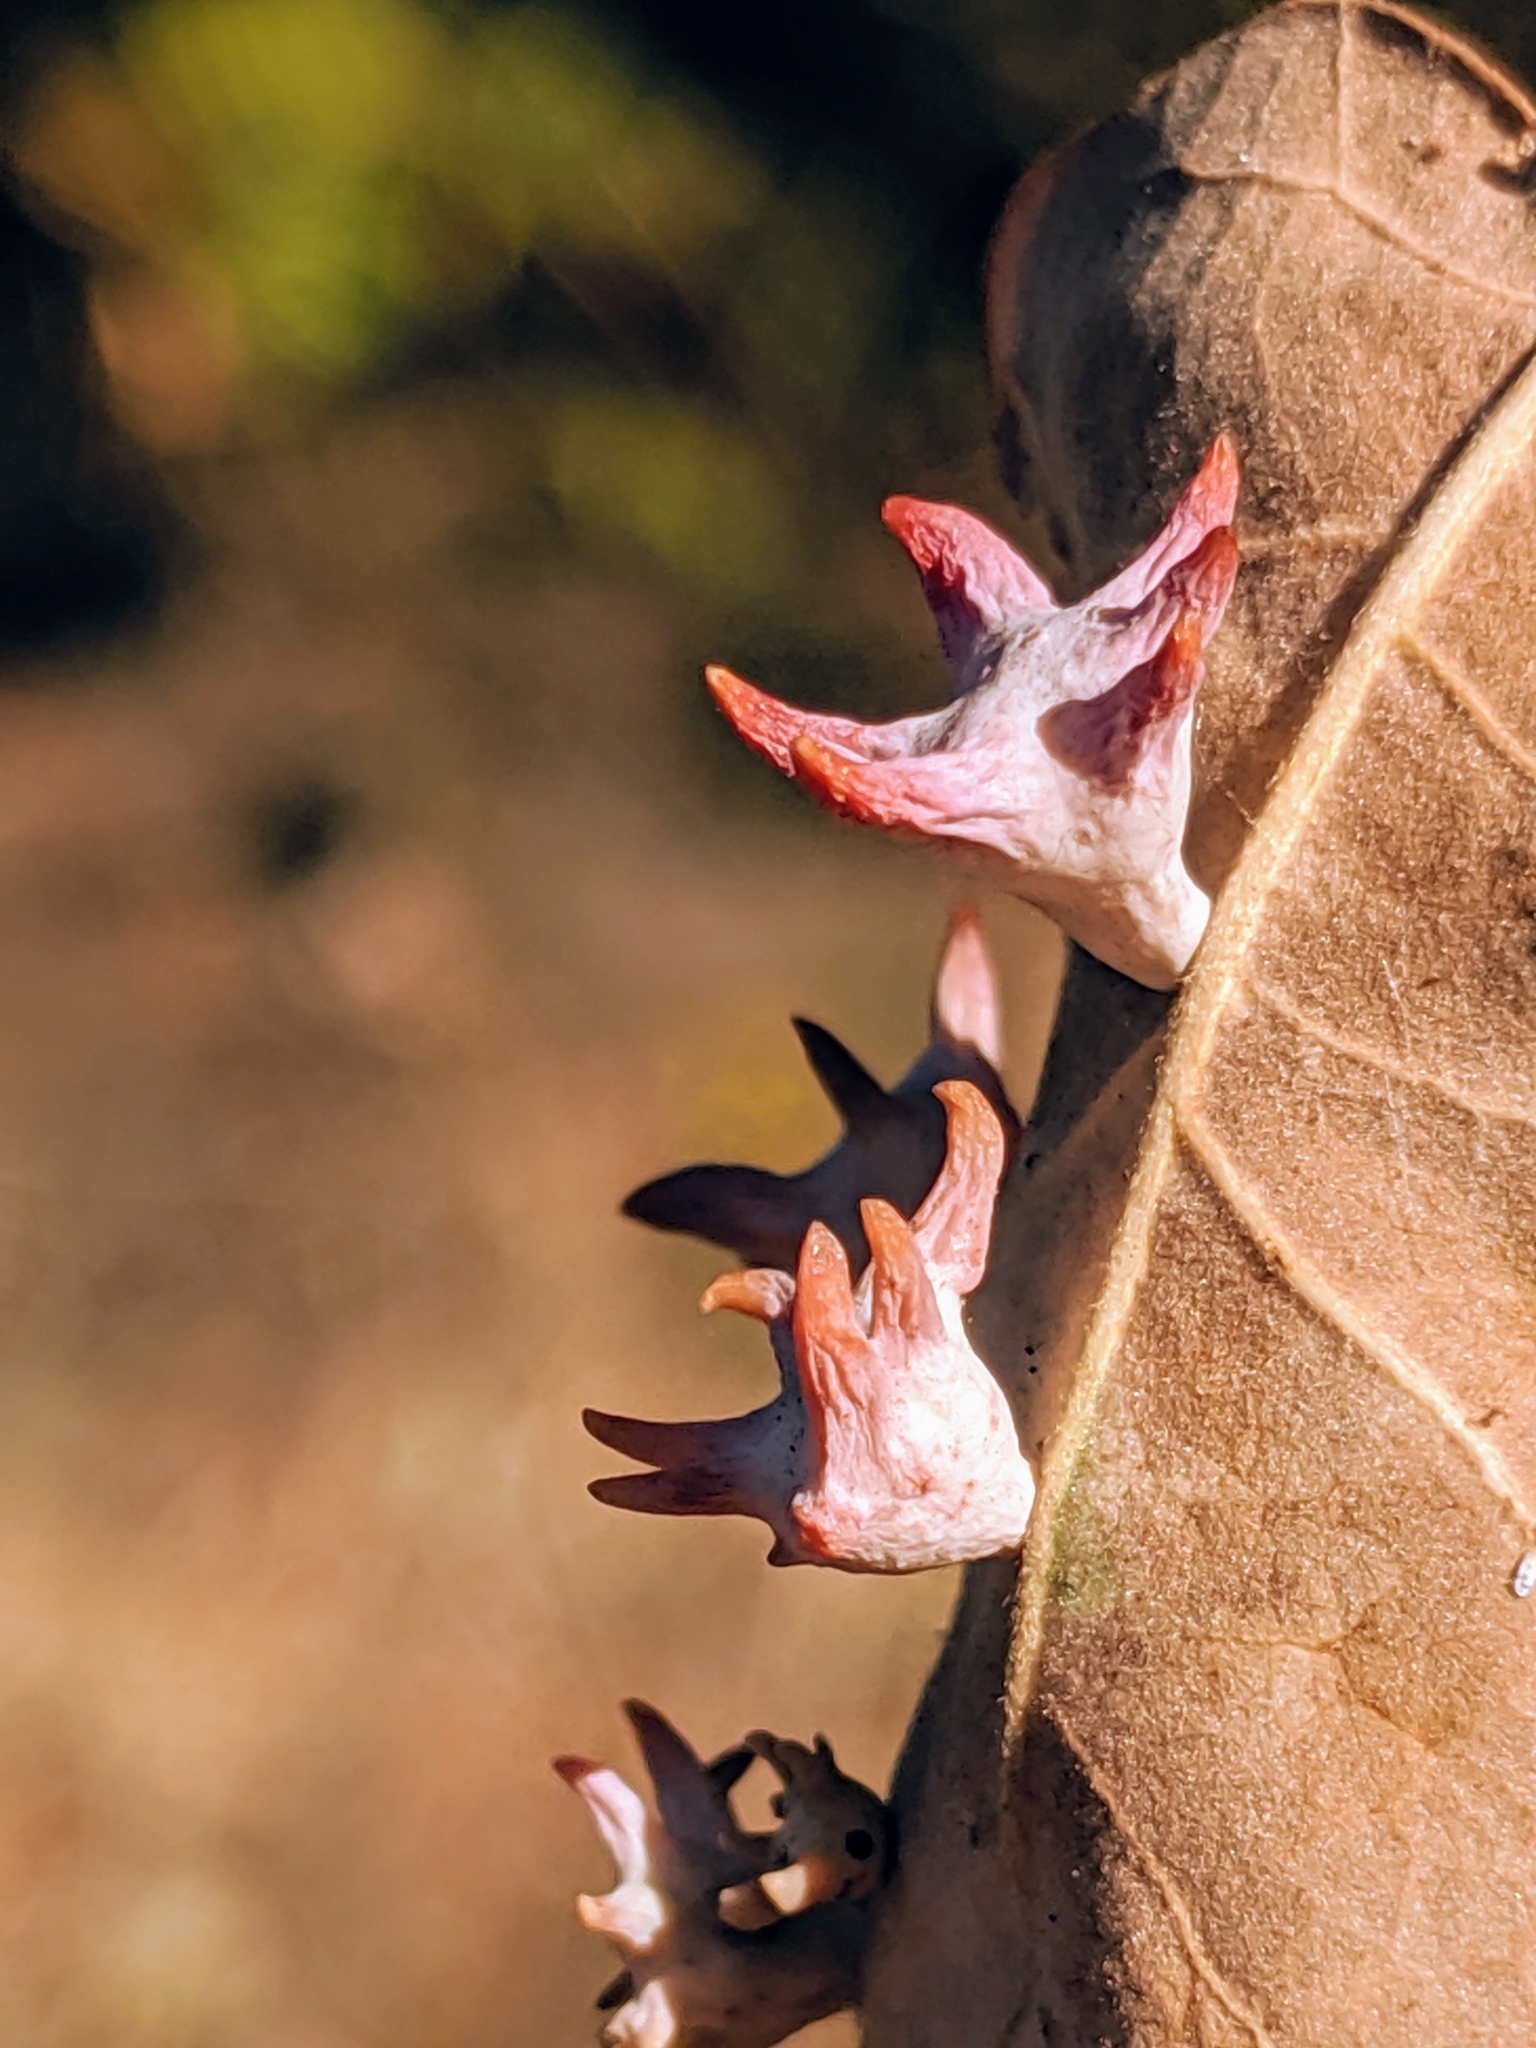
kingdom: Animalia
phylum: Arthropoda
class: Insecta
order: Hymenoptera
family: Cynipidae
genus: Cynips
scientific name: Cynips douglasi
